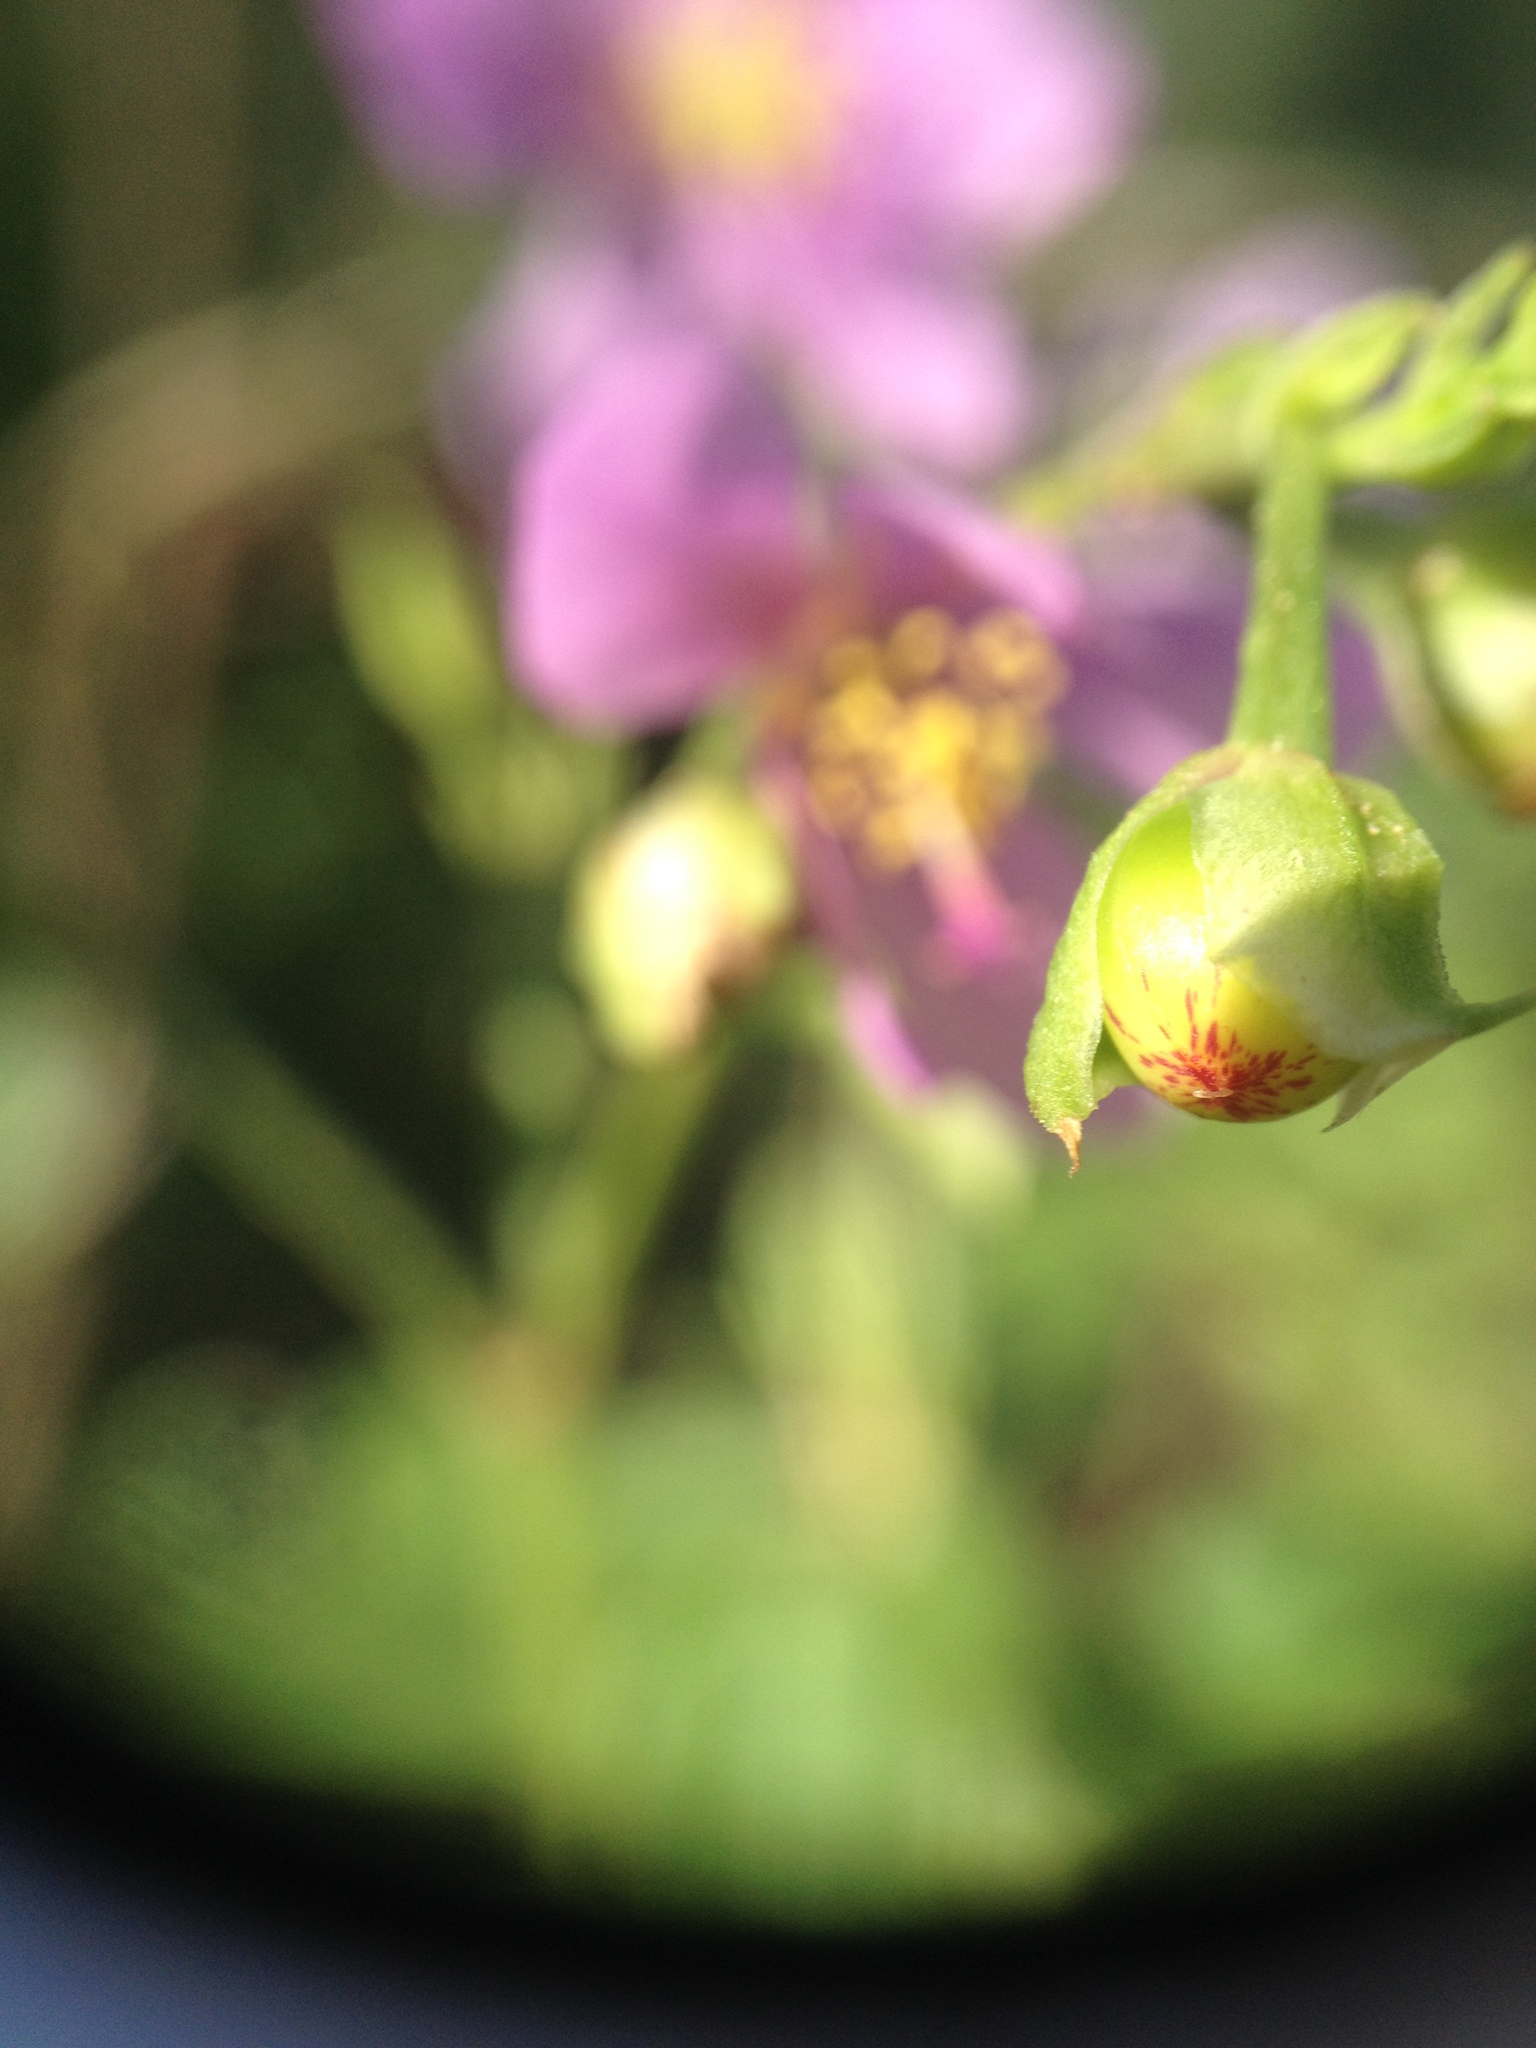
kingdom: Plantae
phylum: Tracheophyta
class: Magnoliopsida
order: Caryophyllales
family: Talinaceae
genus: Talinum
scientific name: Talinum fruticosum
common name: Verdolaga-francesa
